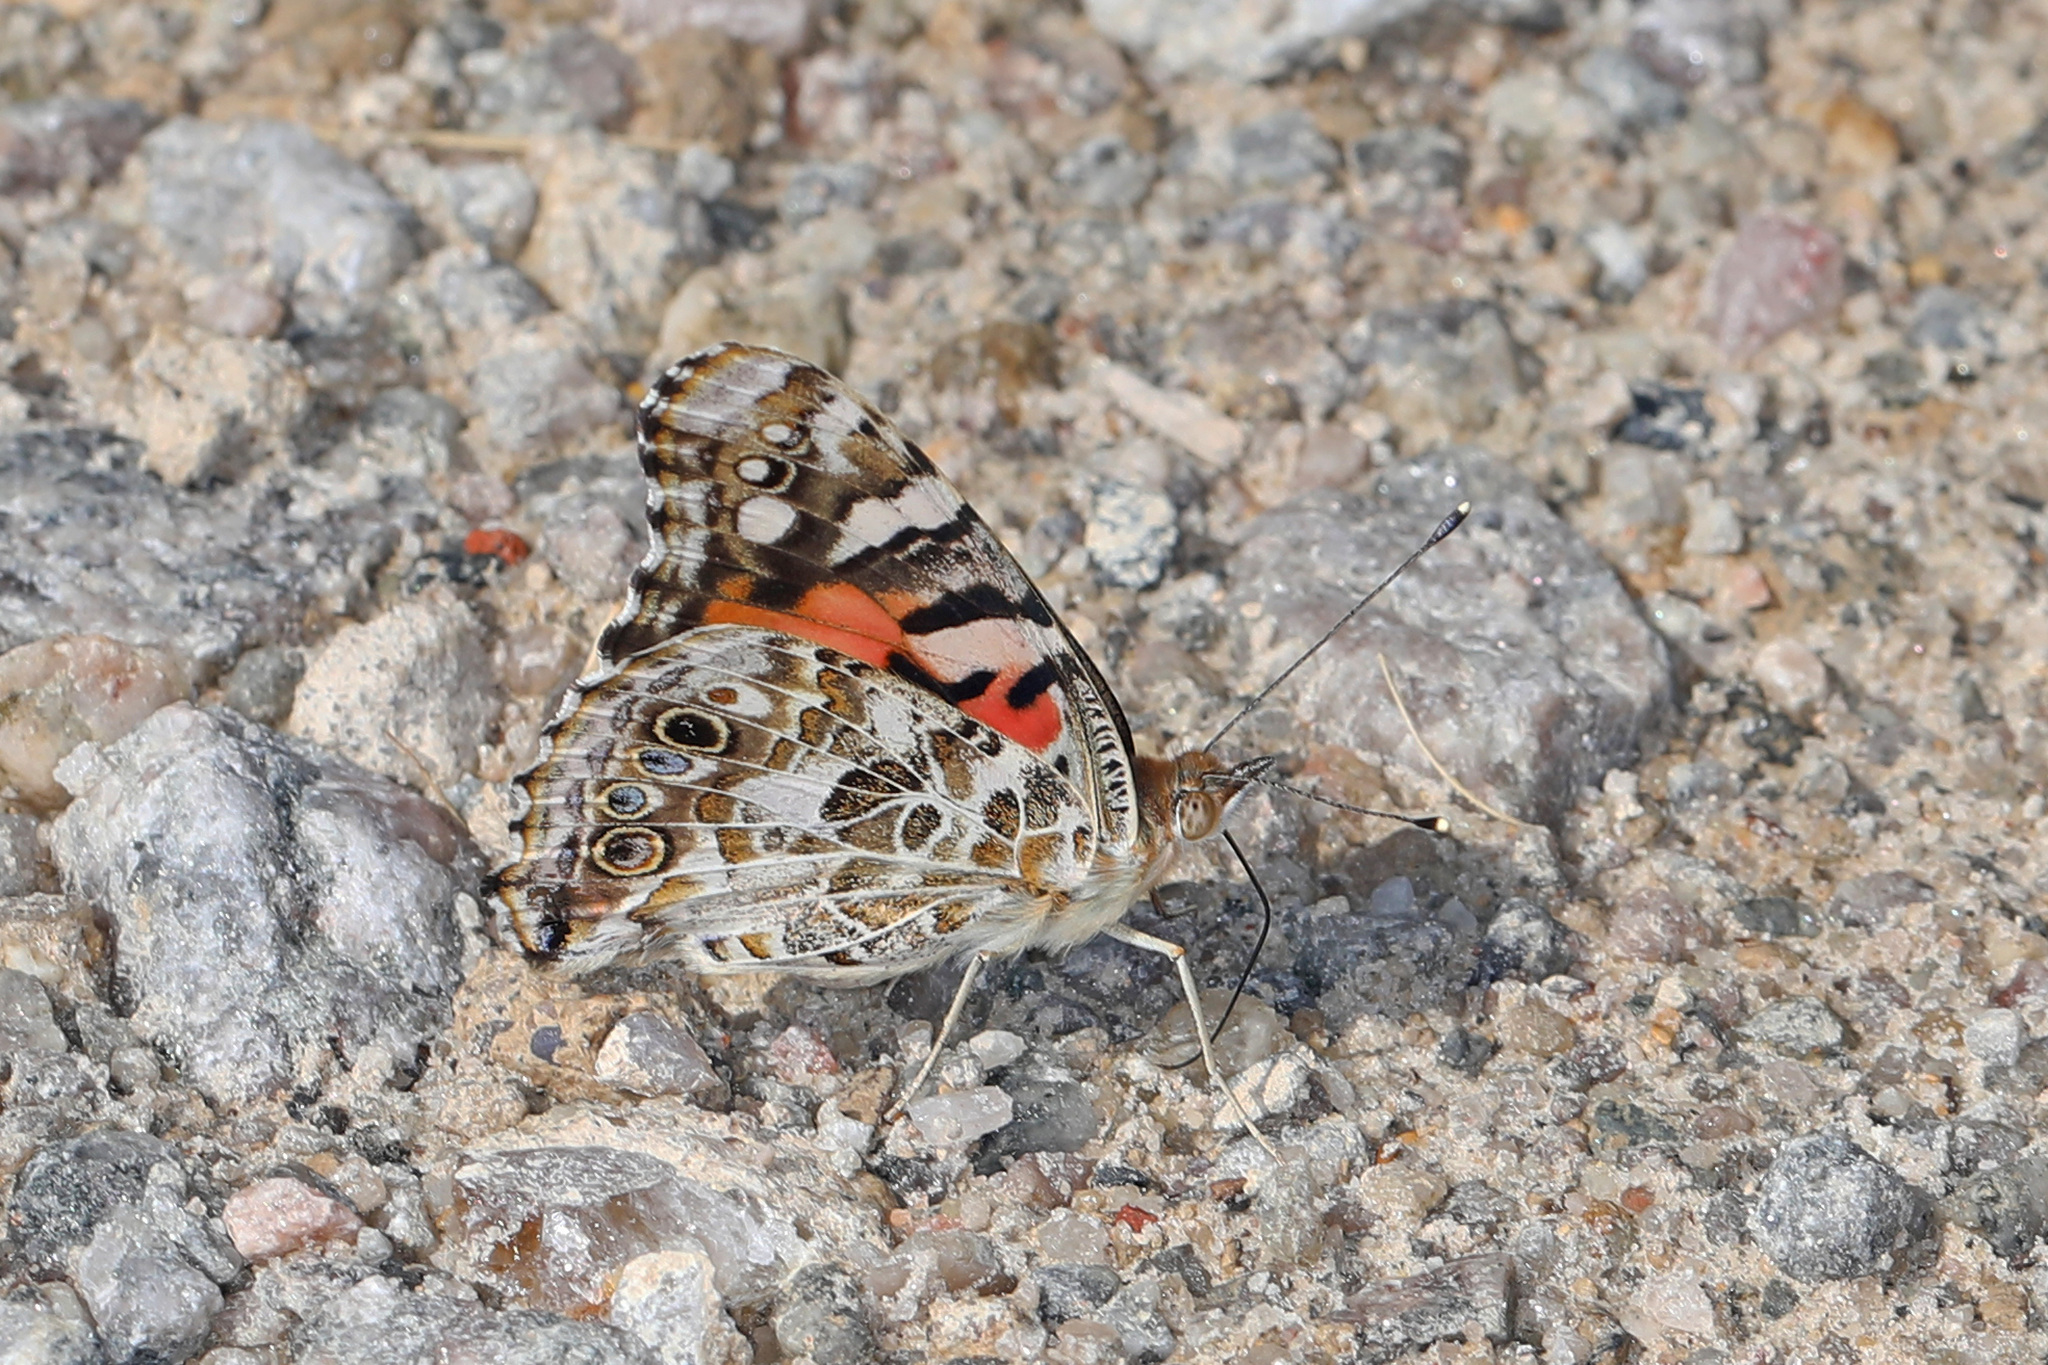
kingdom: Animalia
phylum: Arthropoda
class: Insecta
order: Lepidoptera
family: Nymphalidae
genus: Vanessa
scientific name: Vanessa cardui
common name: Painted lady
